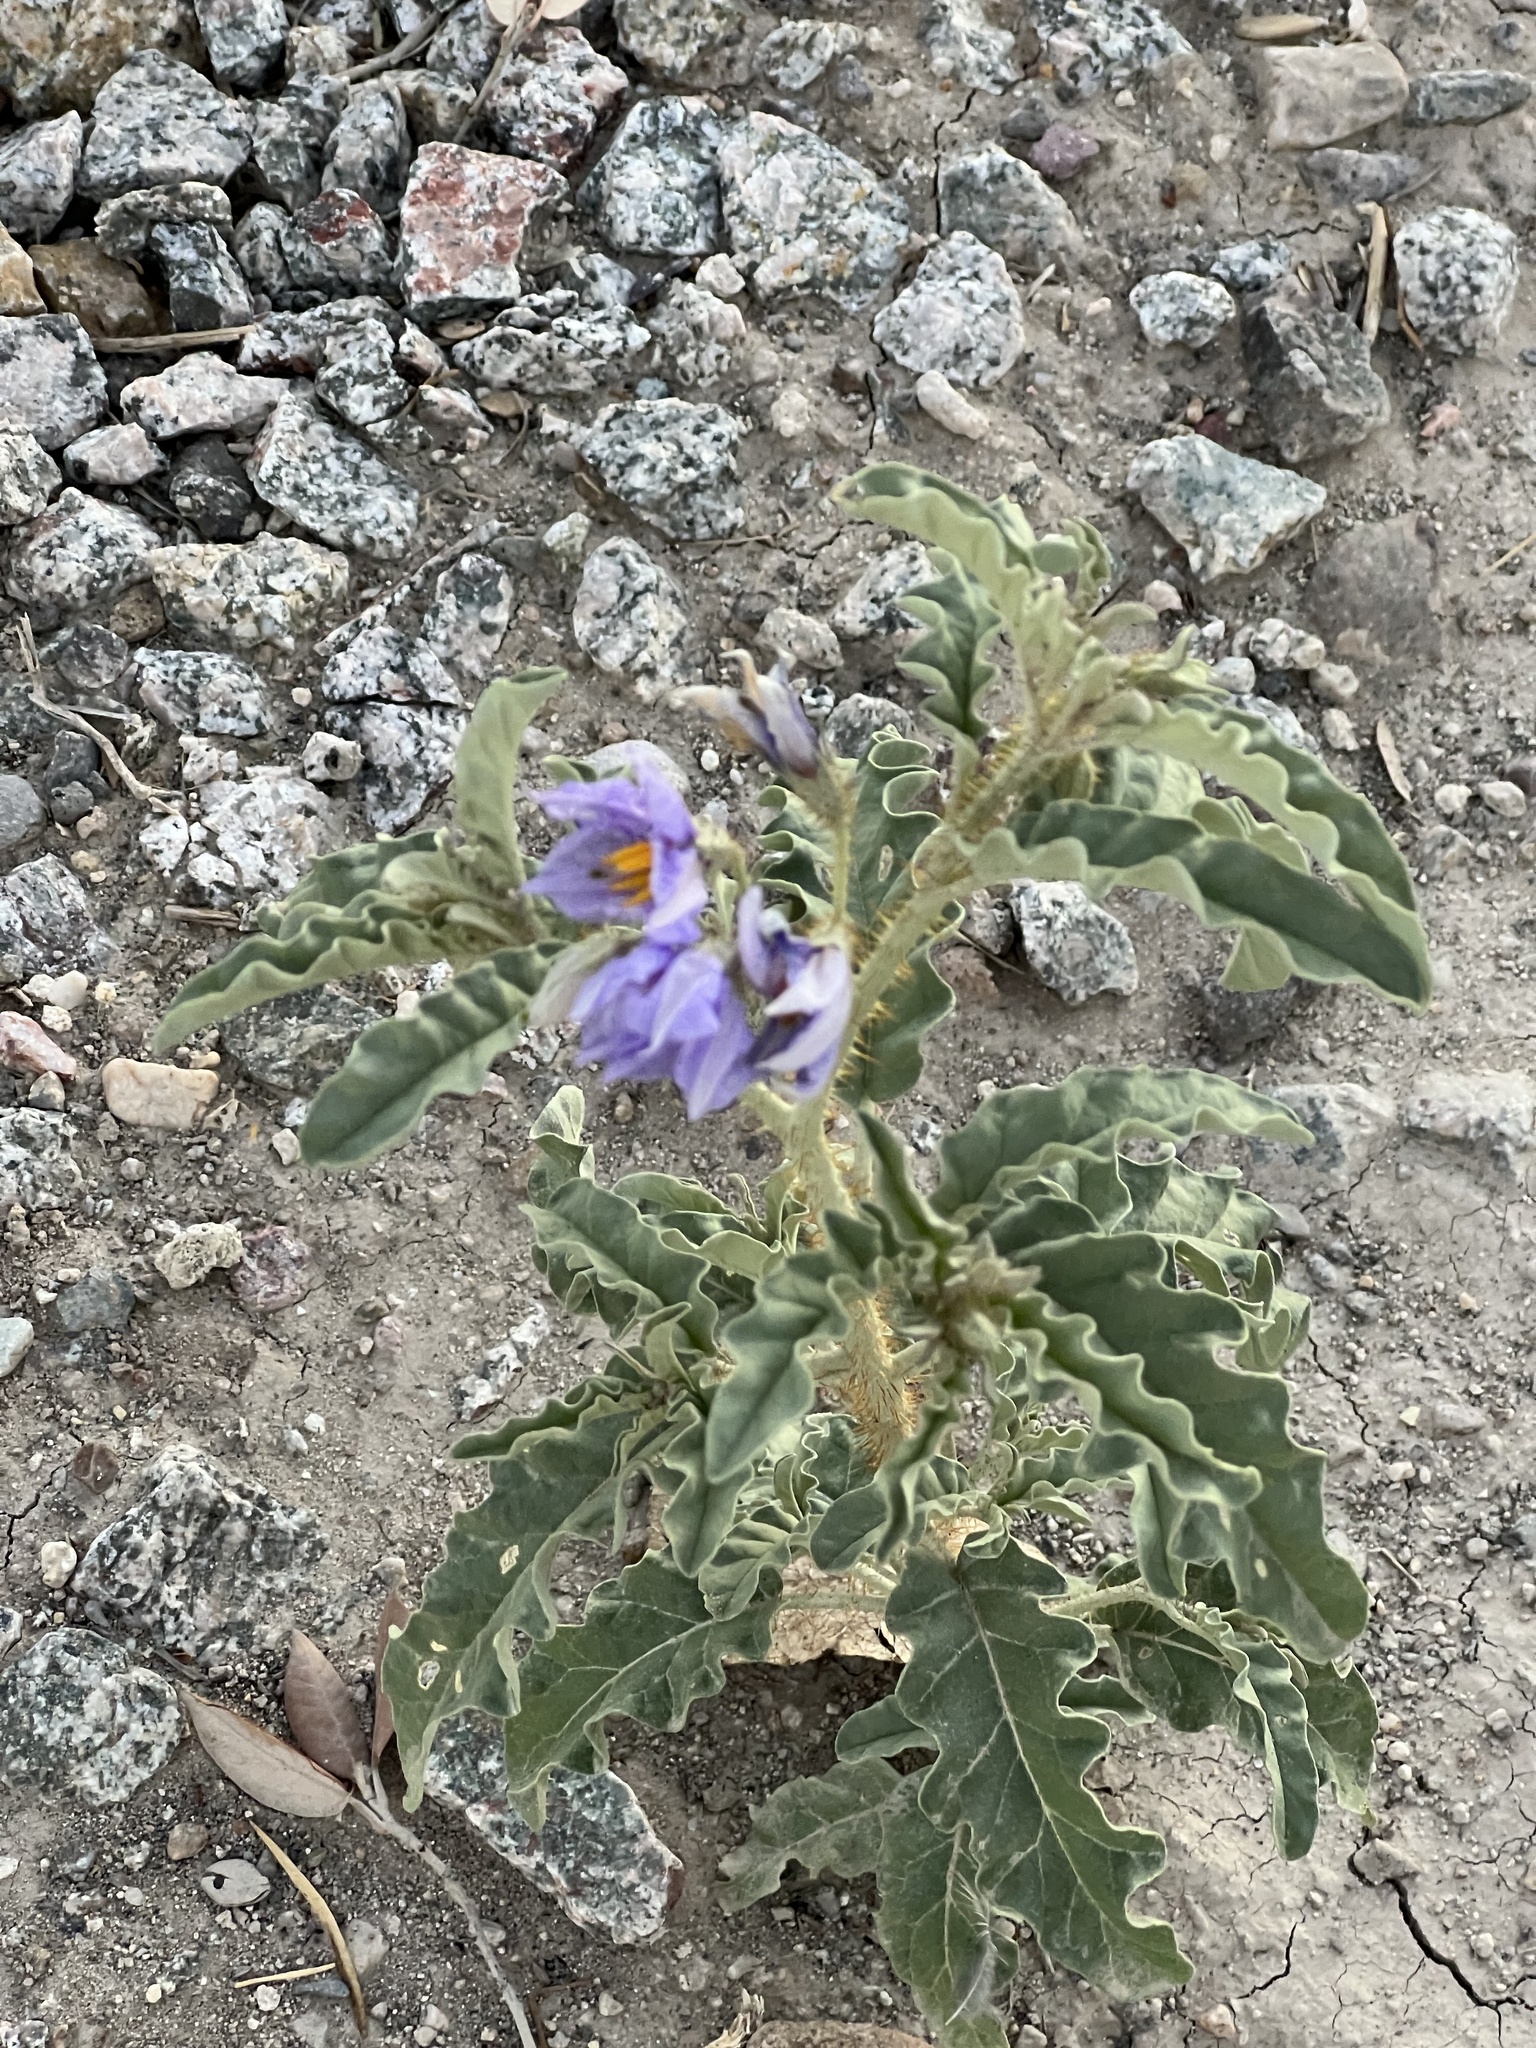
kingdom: Plantae
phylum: Tracheophyta
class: Magnoliopsida
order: Solanales
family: Solanaceae
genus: Solanum
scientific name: Solanum elaeagnifolium
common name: Silverleaf nightshade
